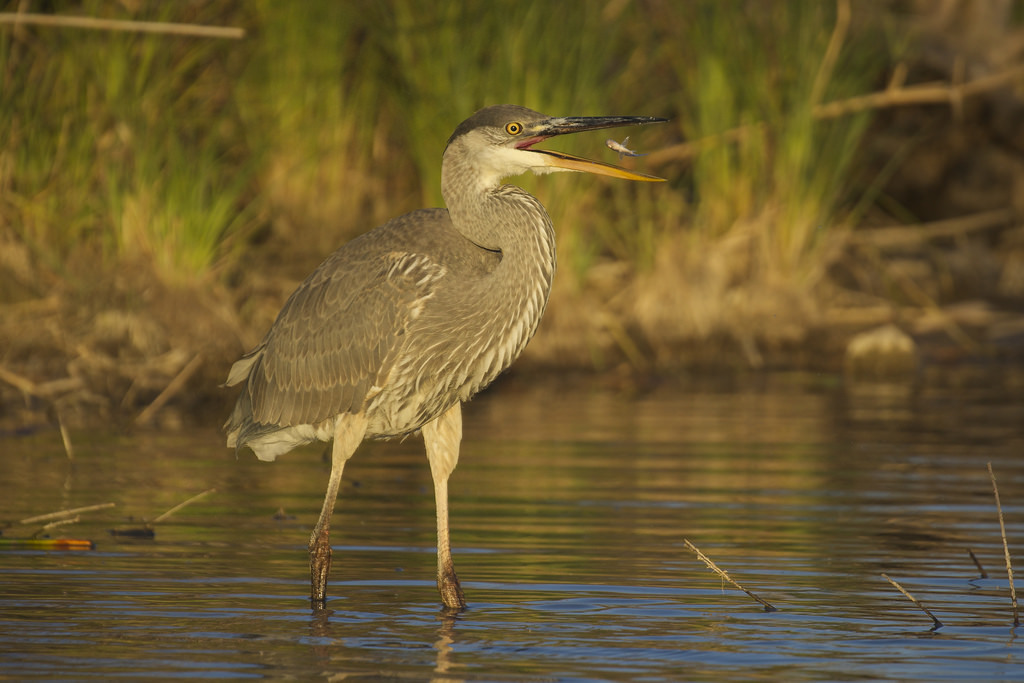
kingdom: Animalia
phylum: Chordata
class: Aves
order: Pelecaniformes
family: Ardeidae
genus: Ardea
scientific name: Ardea herodias
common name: Great blue heron
